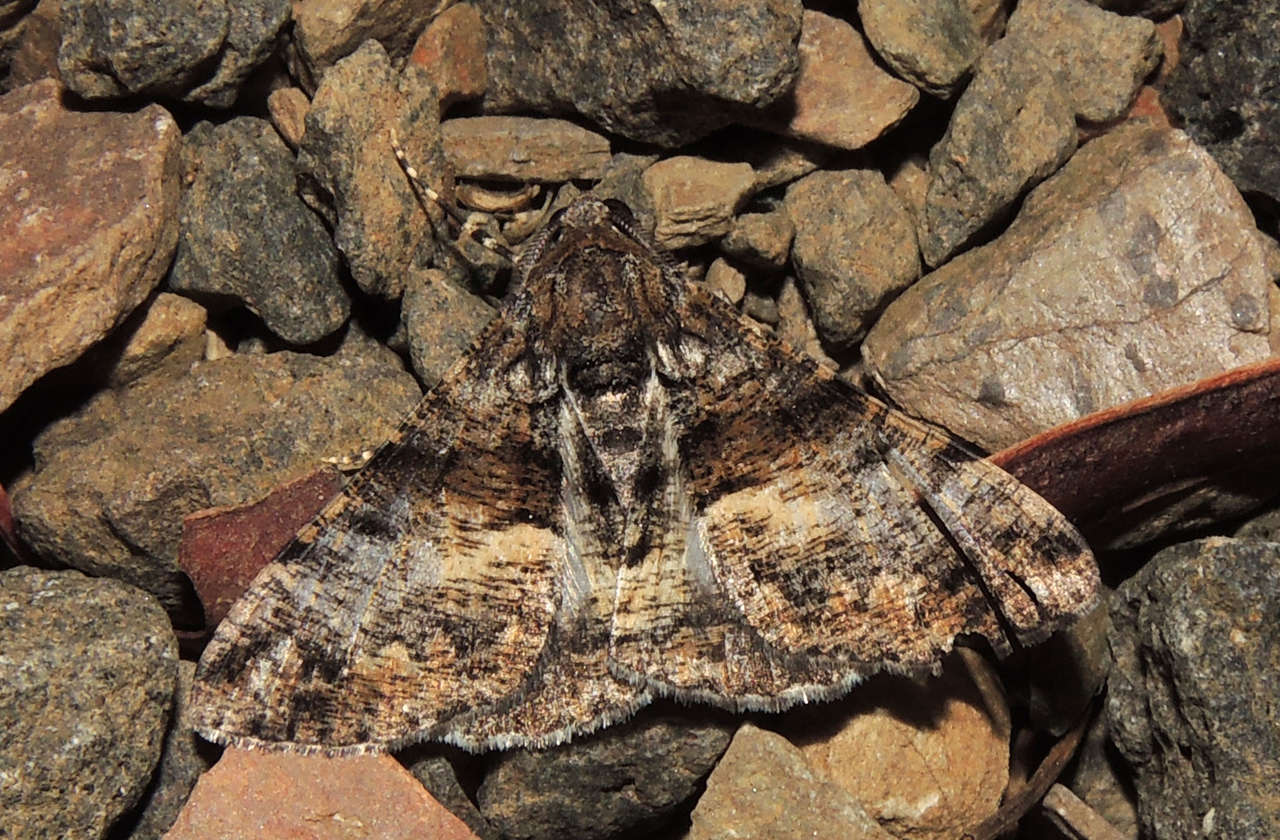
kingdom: Animalia
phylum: Arthropoda
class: Insecta
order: Lepidoptera
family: Geometridae
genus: Gastrinodes
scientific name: Gastrinodes argoplaca
